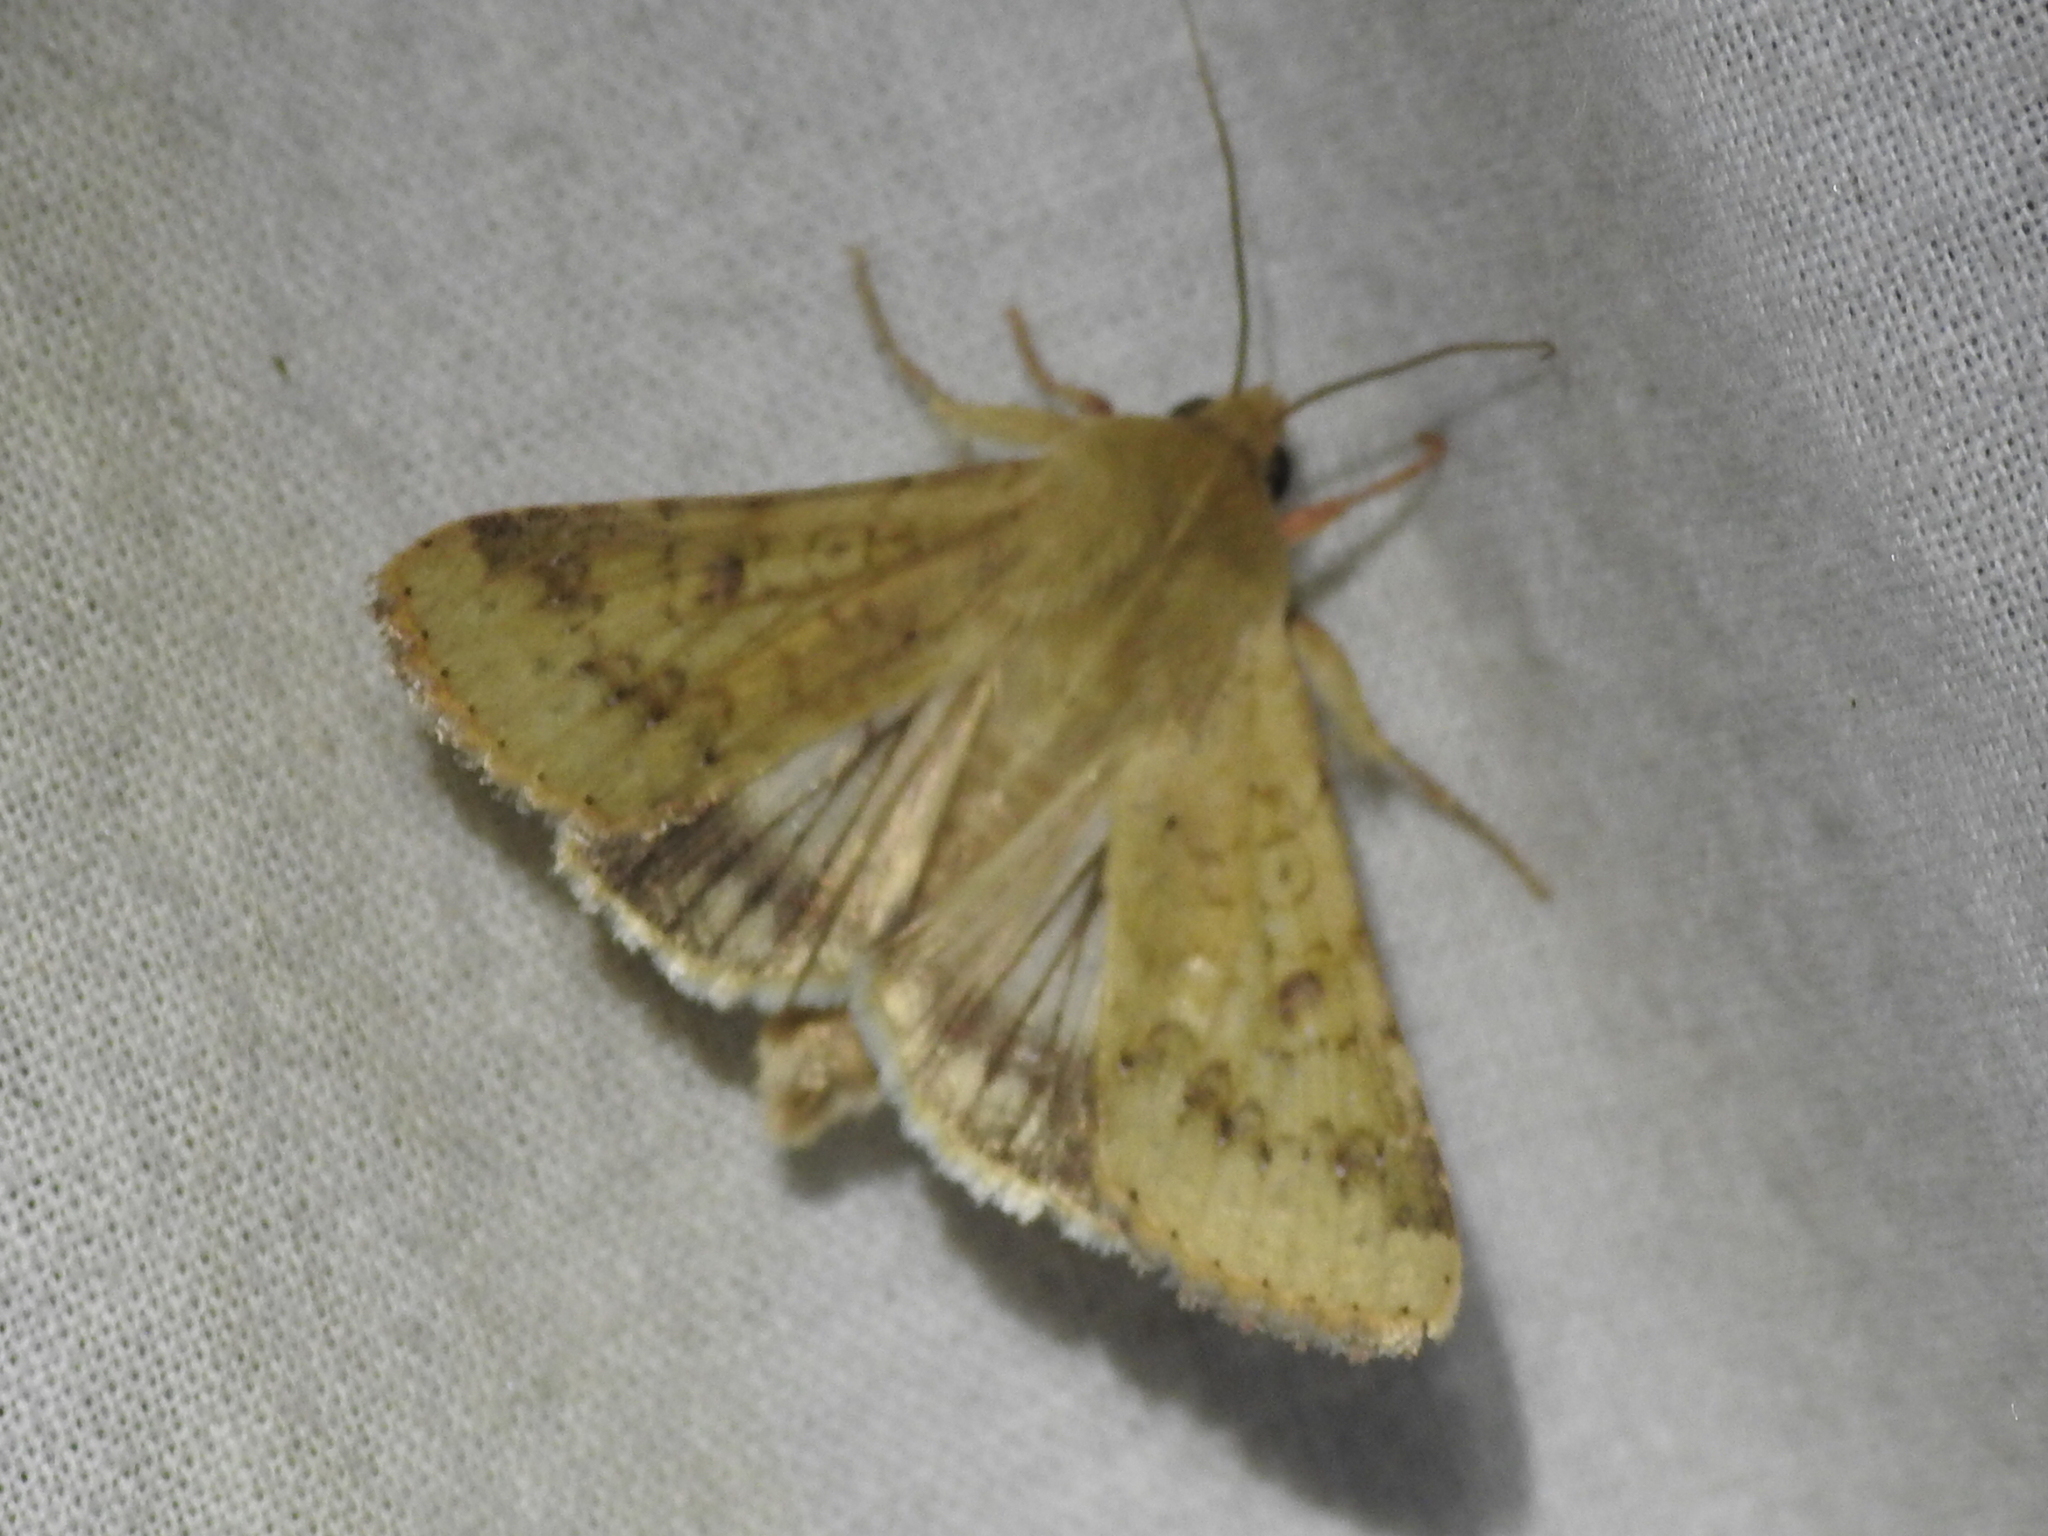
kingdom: Animalia
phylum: Arthropoda
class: Insecta
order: Lepidoptera
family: Noctuidae
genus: Helicoverpa
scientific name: Helicoverpa zea
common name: Bollworm
